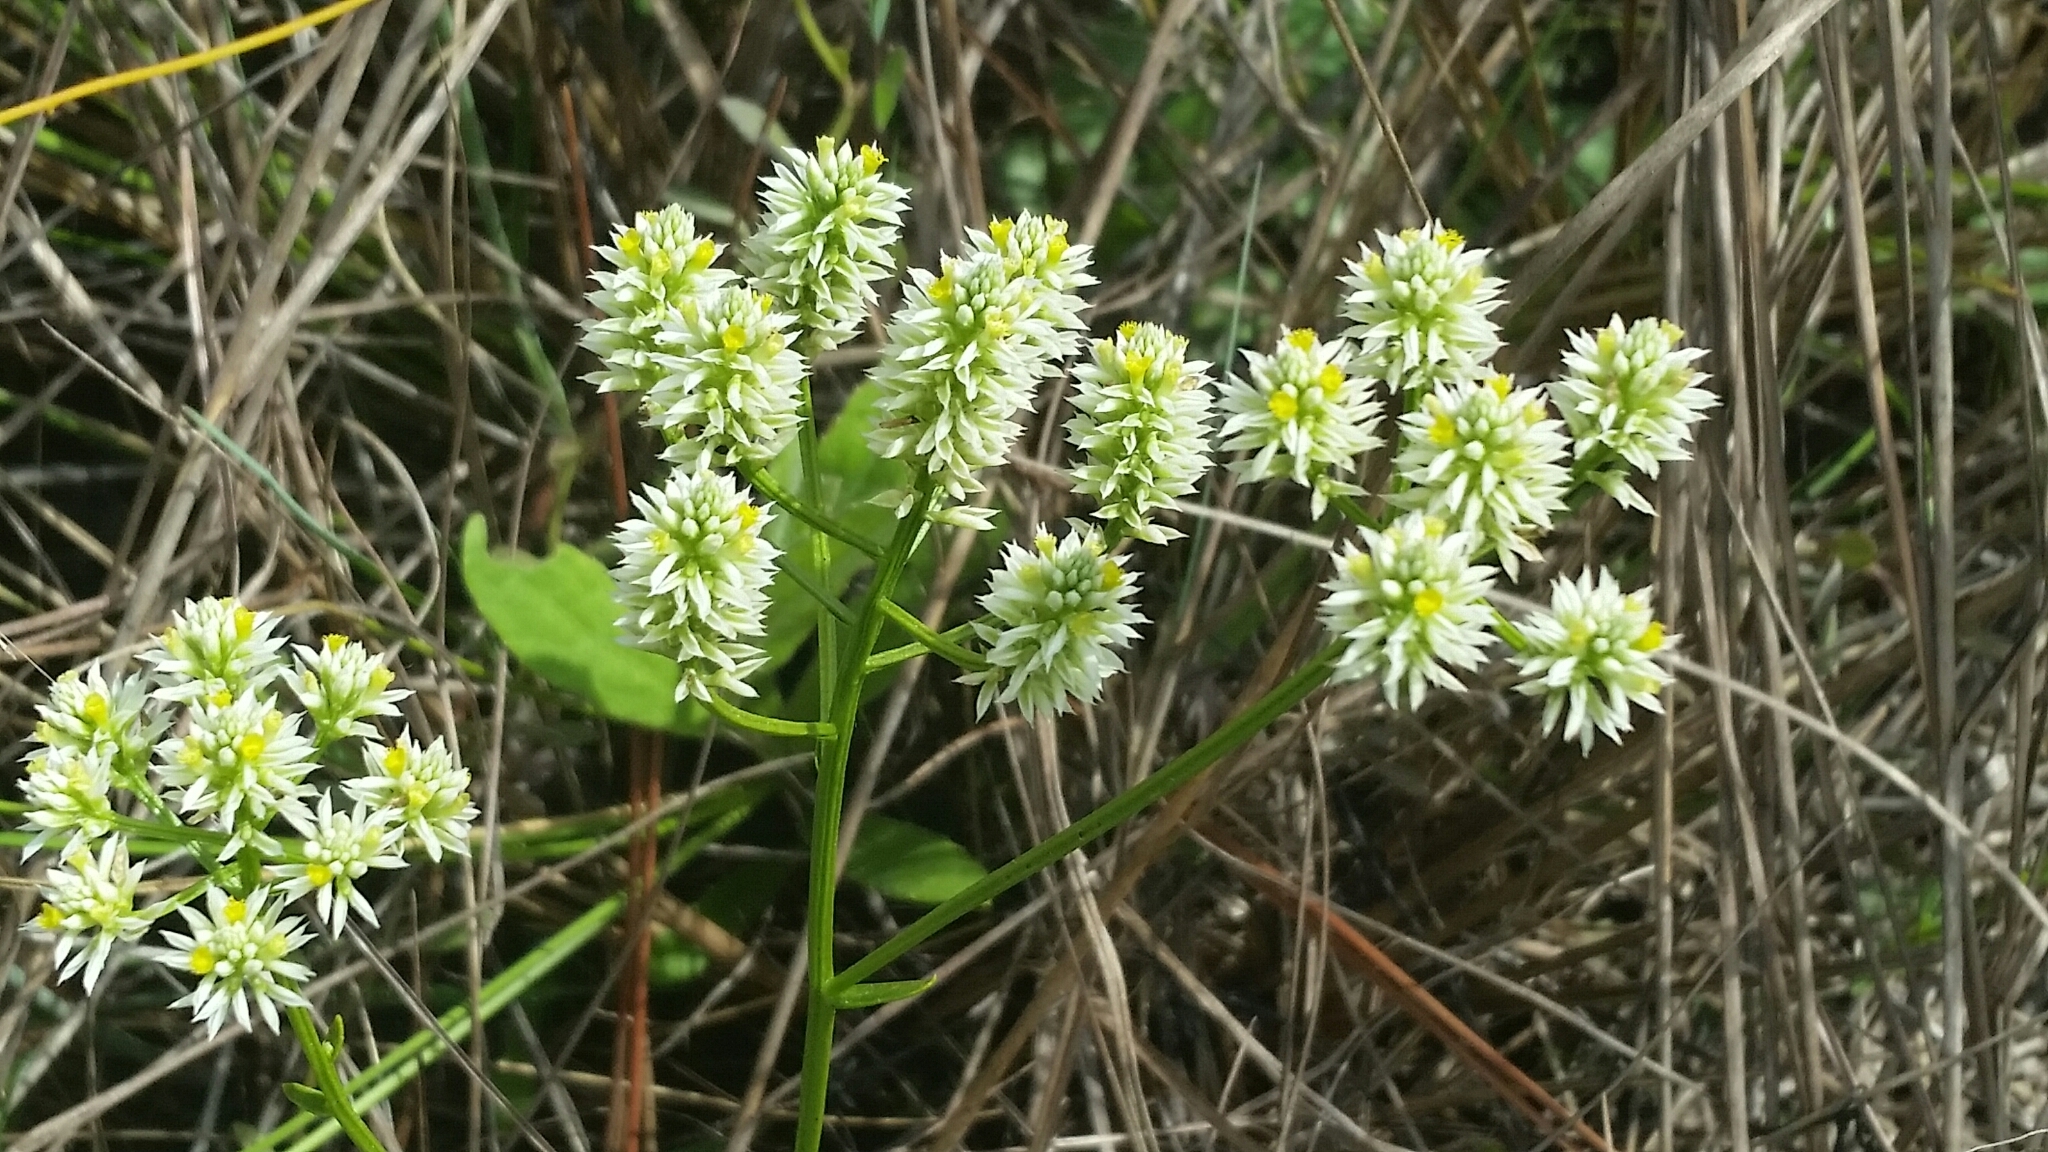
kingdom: Plantae
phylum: Tracheophyta
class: Magnoliopsida
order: Fabales
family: Polygalaceae
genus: Polygala
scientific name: Polygala baldwinii
